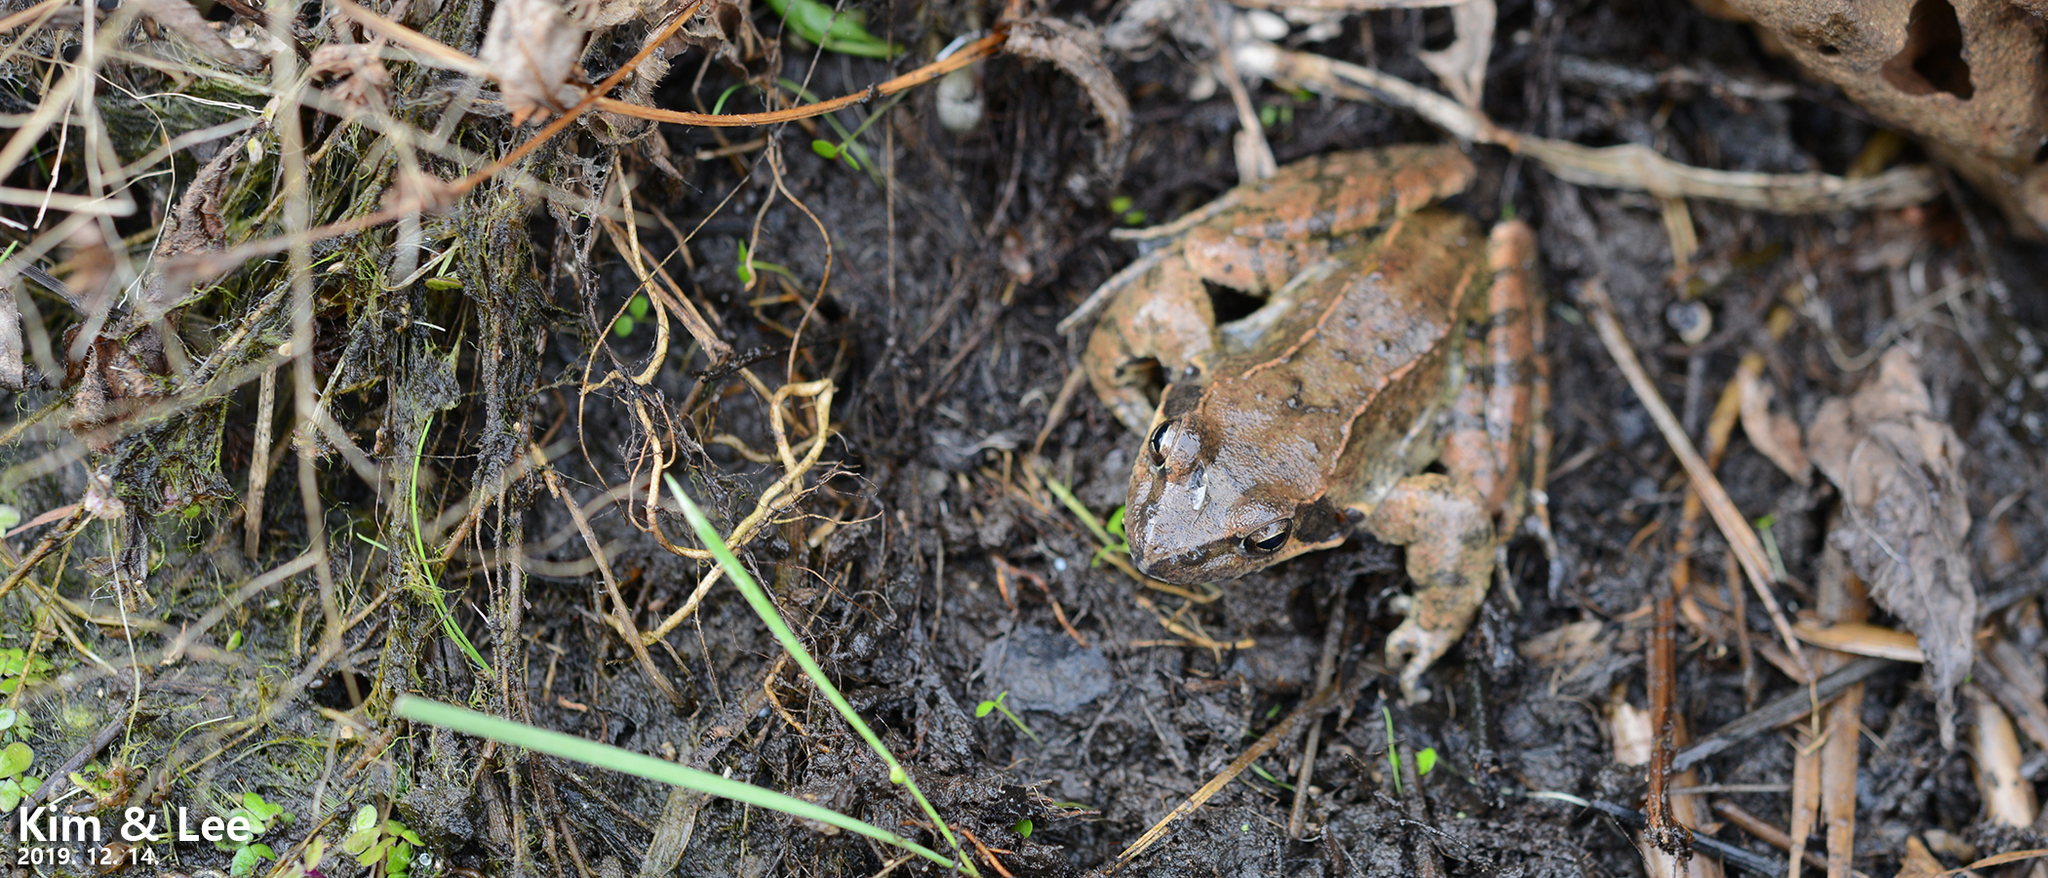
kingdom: Animalia
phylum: Chordata
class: Amphibia
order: Anura
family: Ranidae
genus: Rana
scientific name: Rana uenoi
